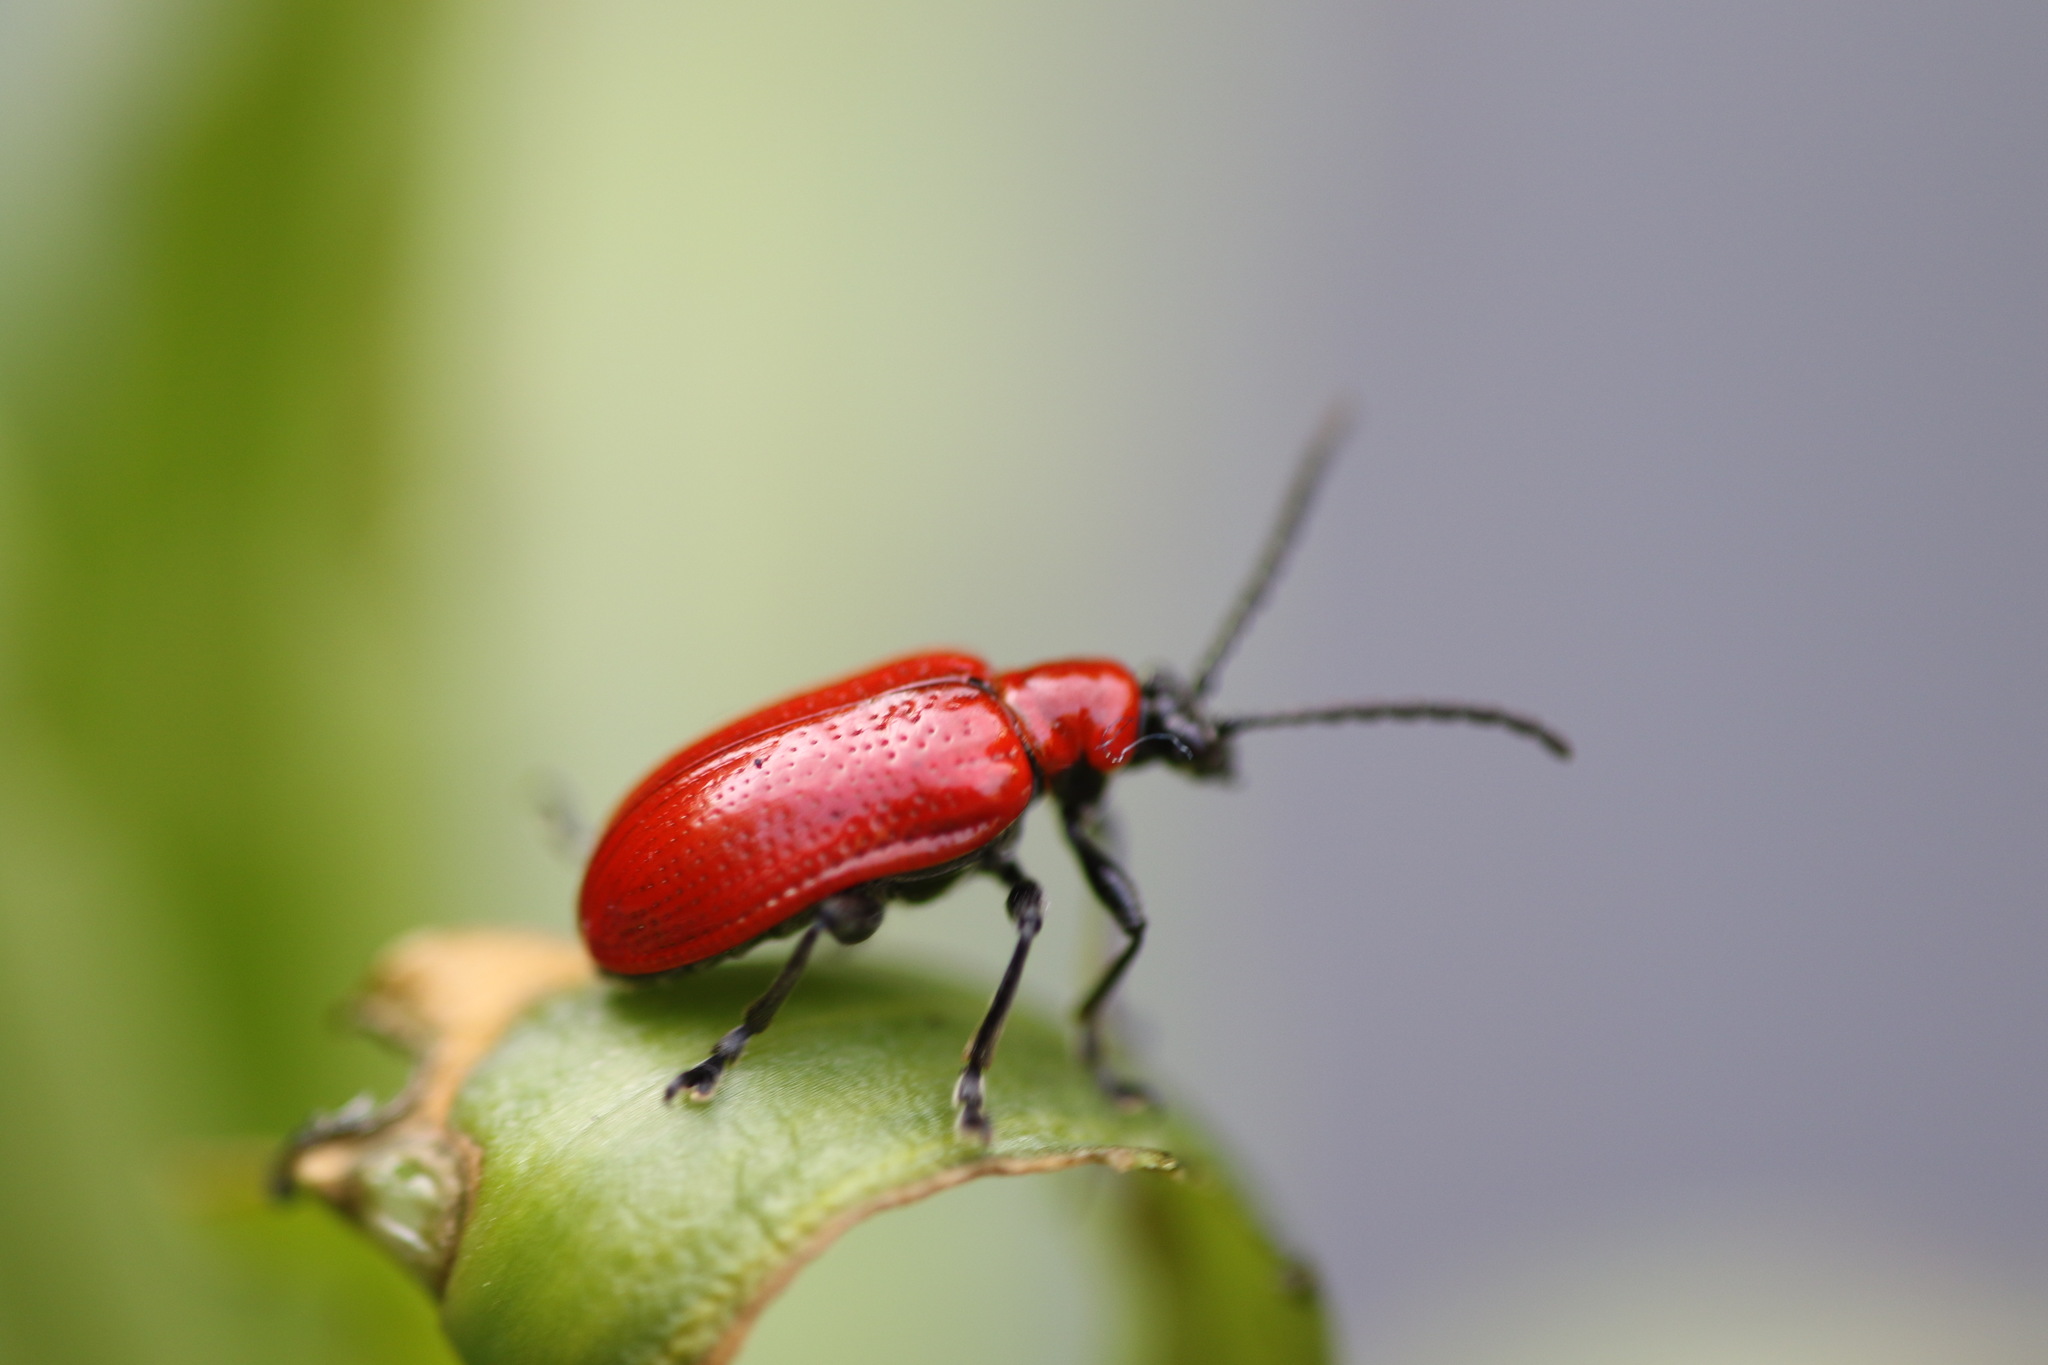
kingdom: Animalia
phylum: Arthropoda
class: Insecta
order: Coleoptera
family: Chrysomelidae
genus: Lilioceris
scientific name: Lilioceris lilii
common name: Lily beetle
